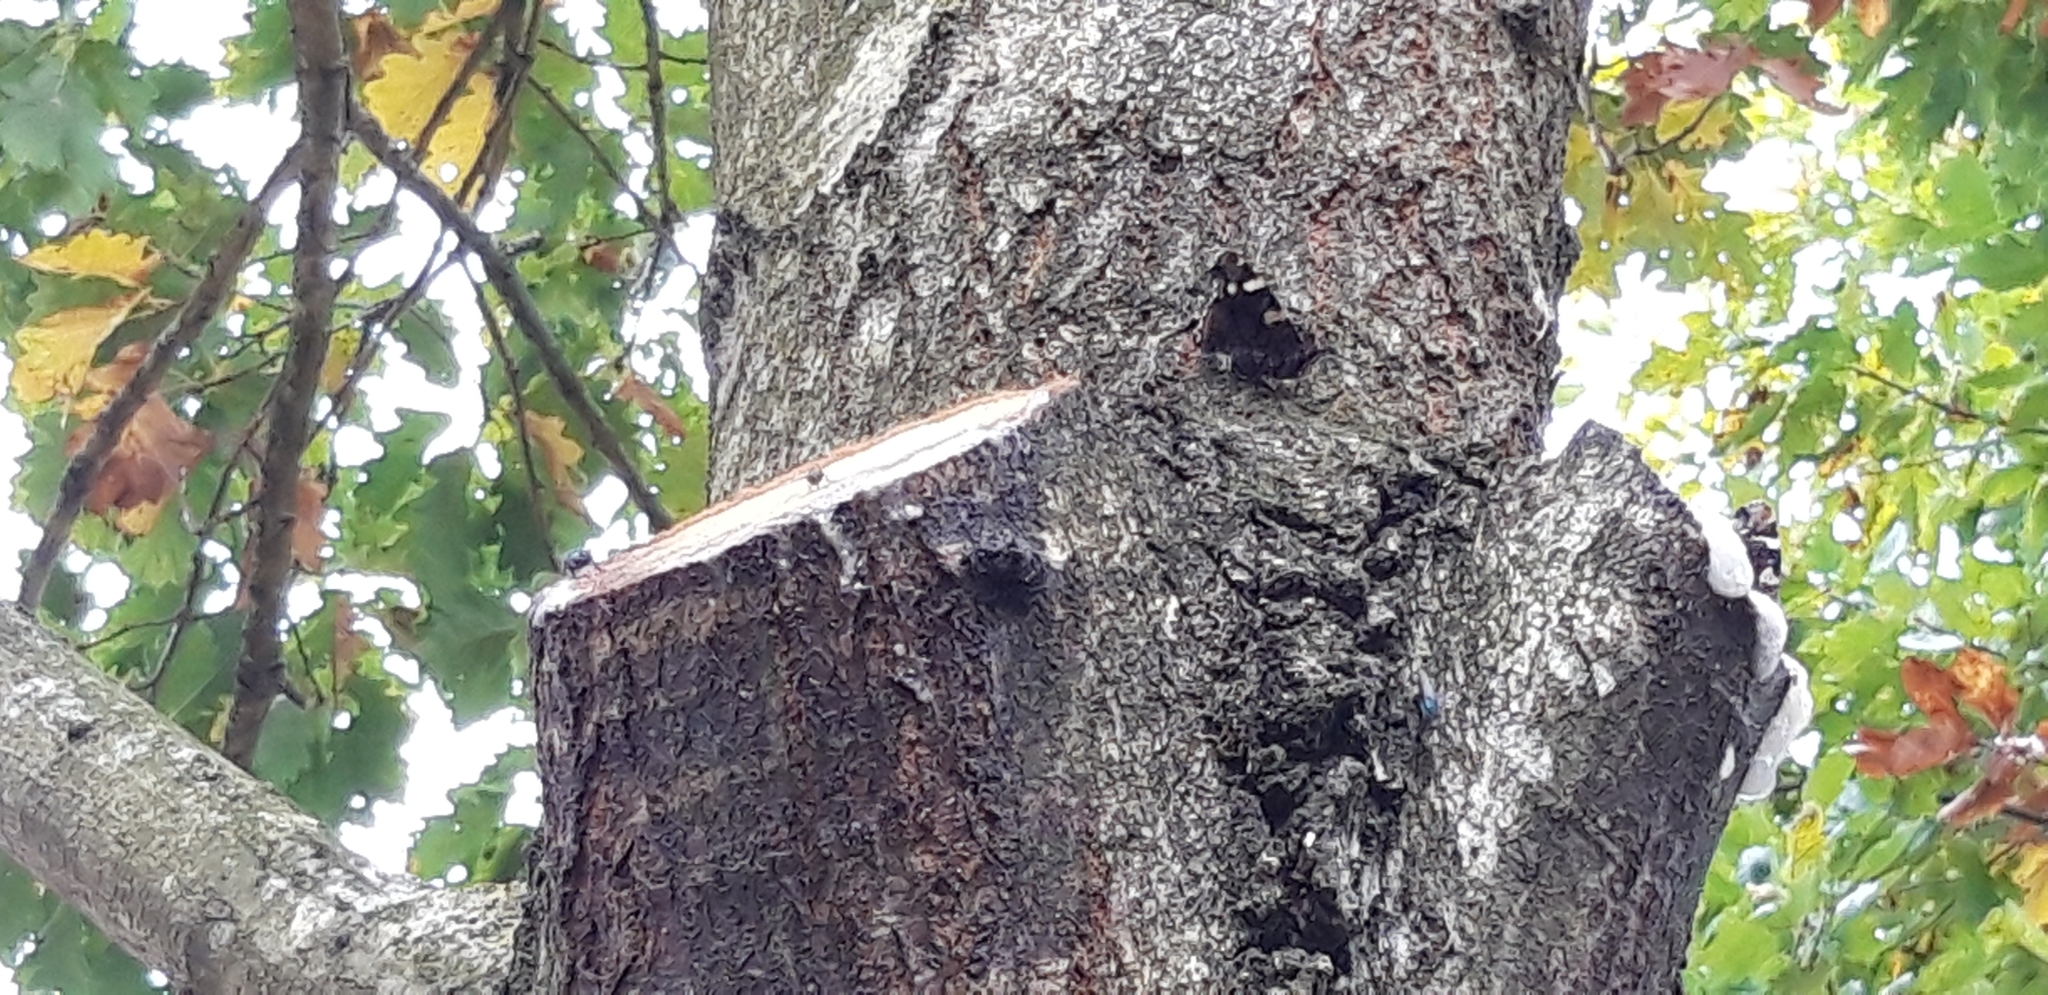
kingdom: Animalia
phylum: Arthropoda
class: Insecta
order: Lepidoptera
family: Nymphalidae
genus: Vanessa
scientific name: Vanessa atalanta
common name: Red admiral
